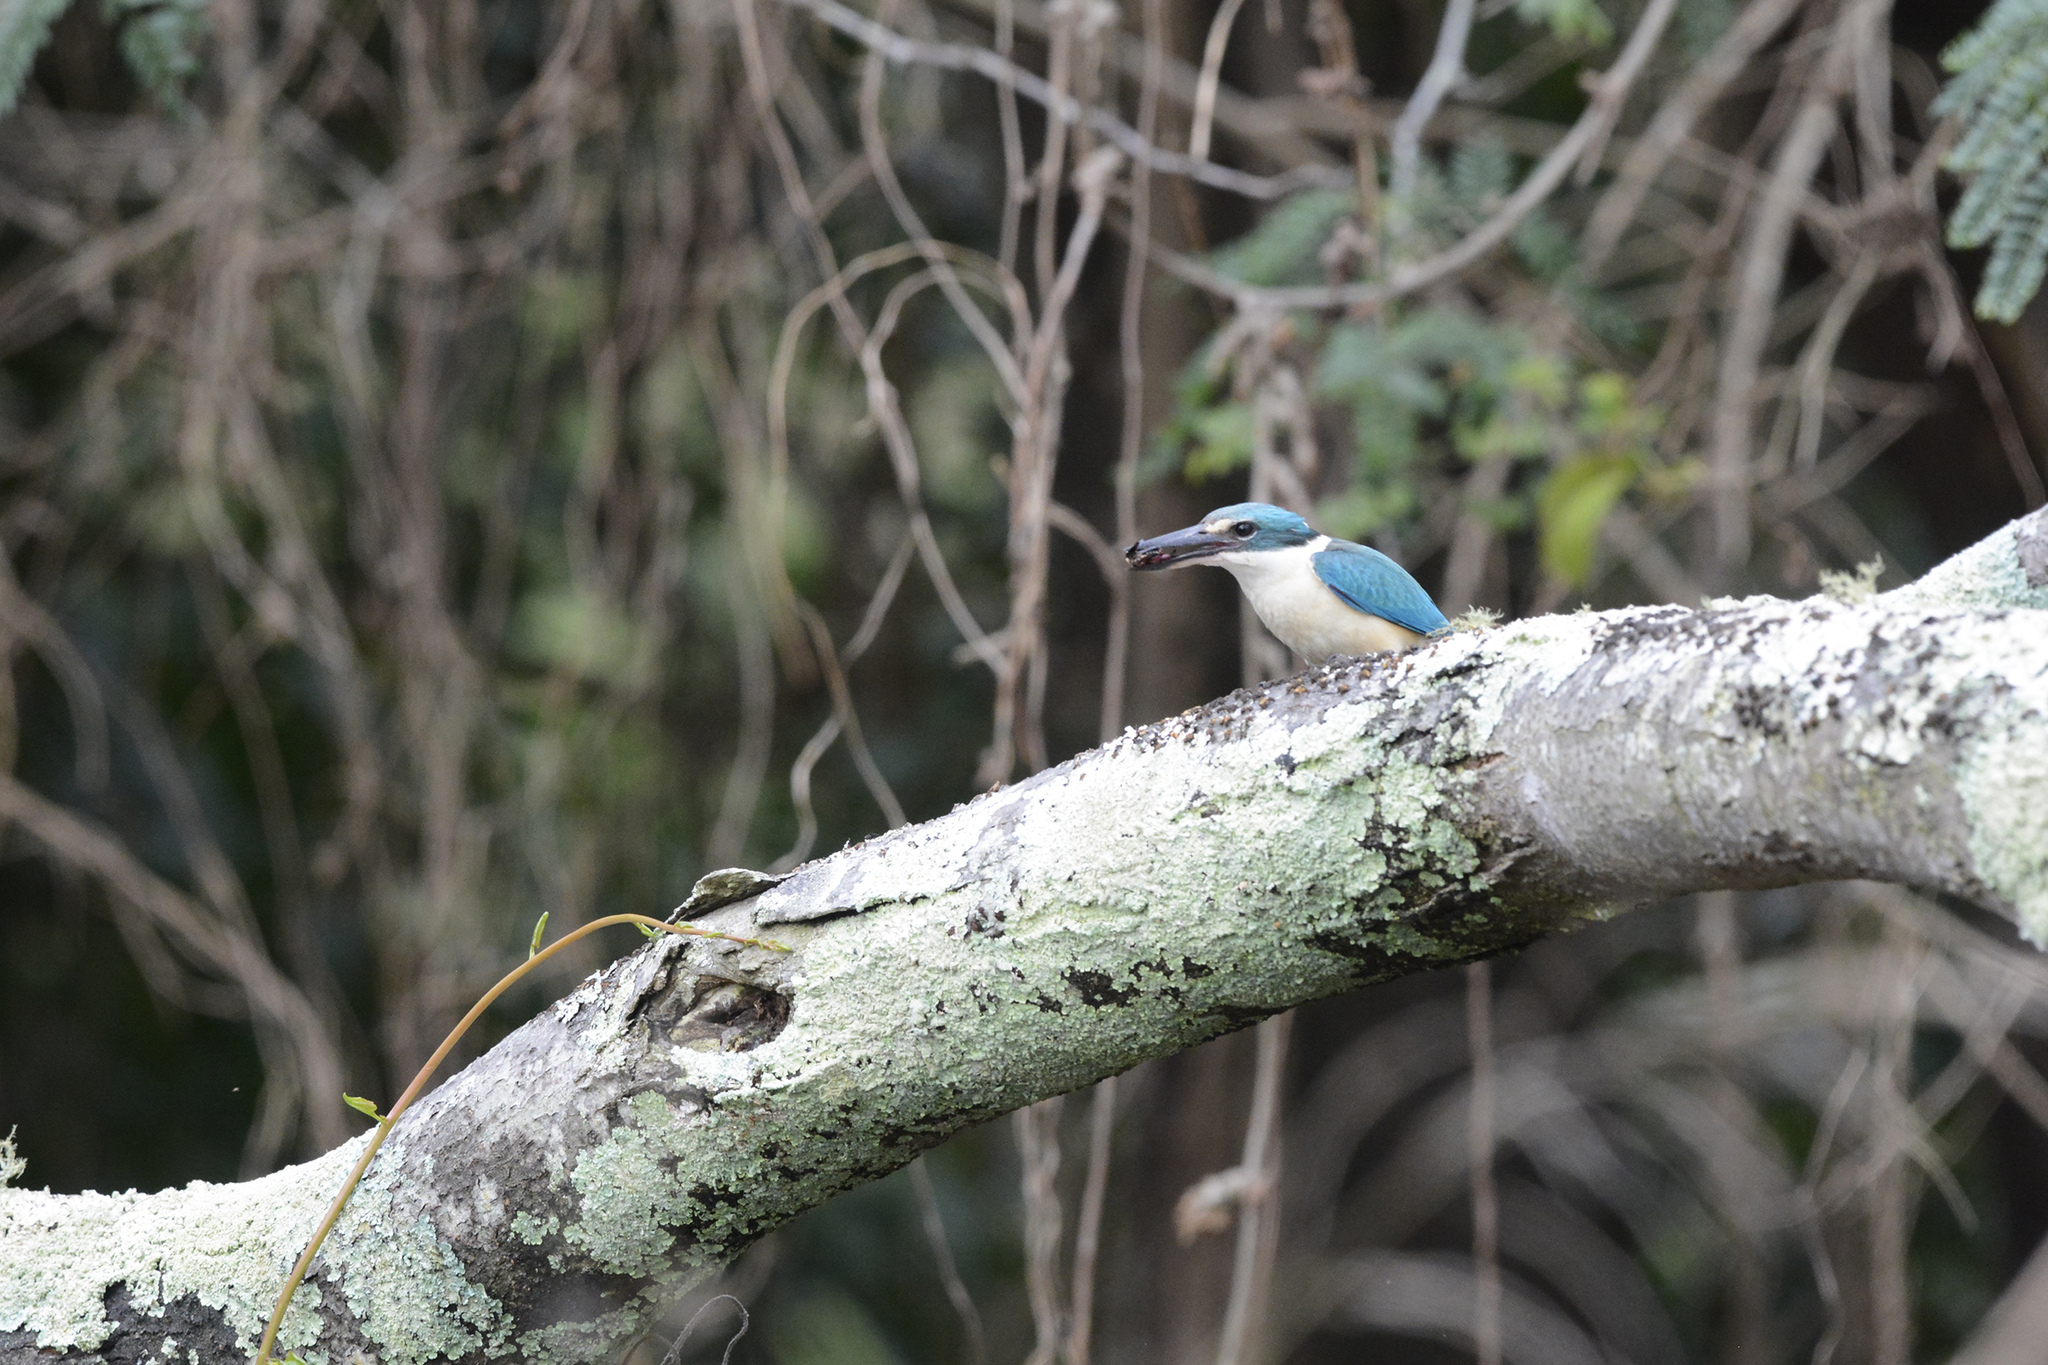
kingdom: Animalia
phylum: Chordata
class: Aves
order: Coraciiformes
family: Alcedinidae
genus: Todiramphus
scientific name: Todiramphus sanctus
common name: Sacred kingfisher
